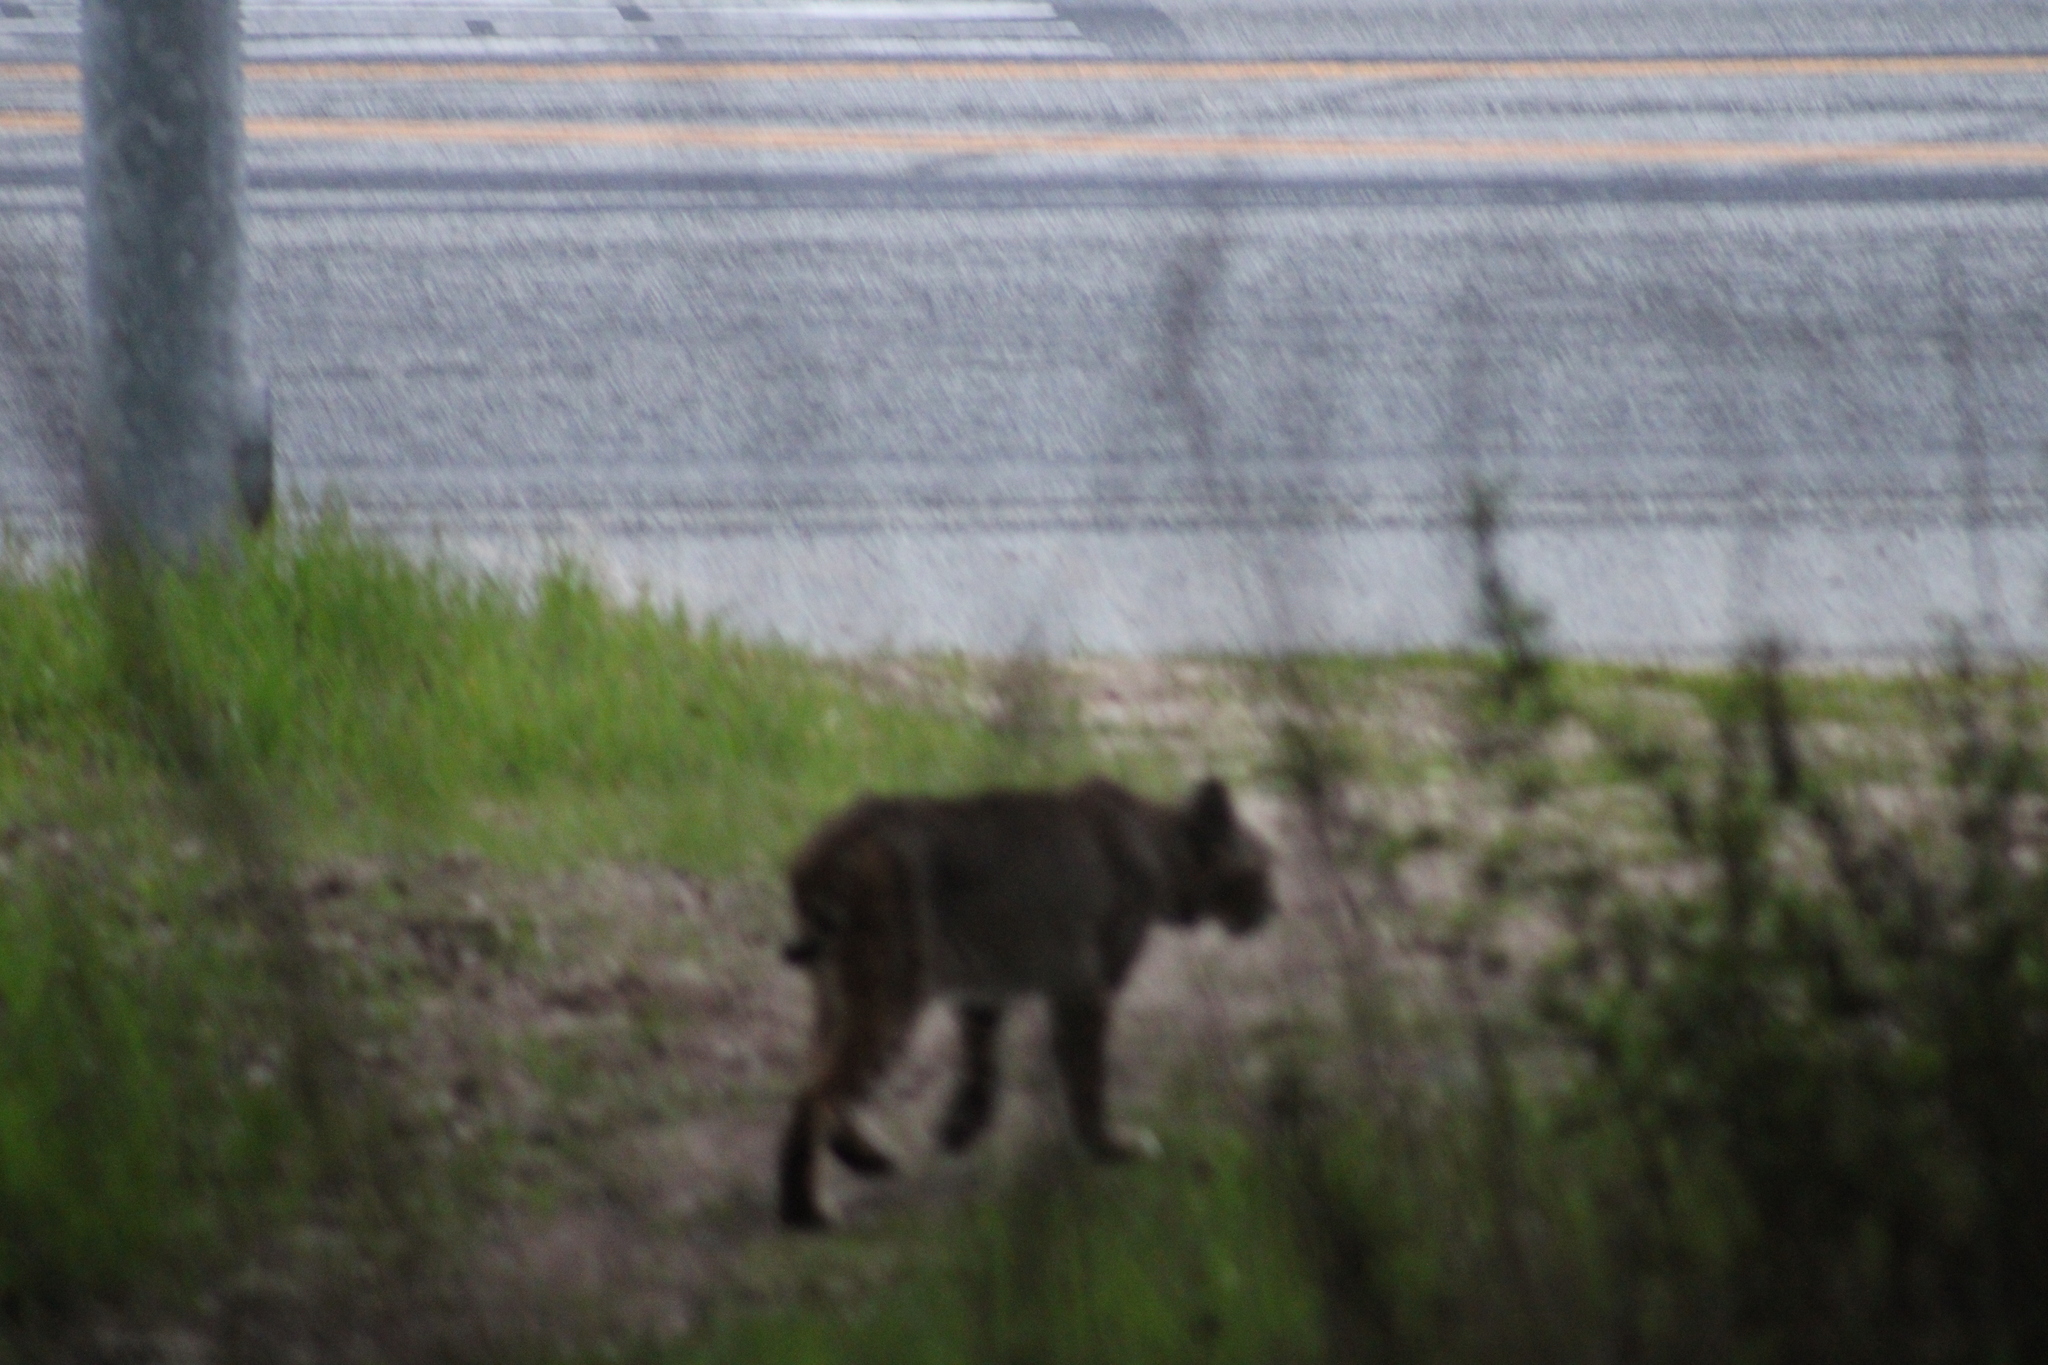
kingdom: Animalia
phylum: Chordata
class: Mammalia
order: Carnivora
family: Felidae
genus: Lynx
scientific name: Lynx rufus
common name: Bobcat
